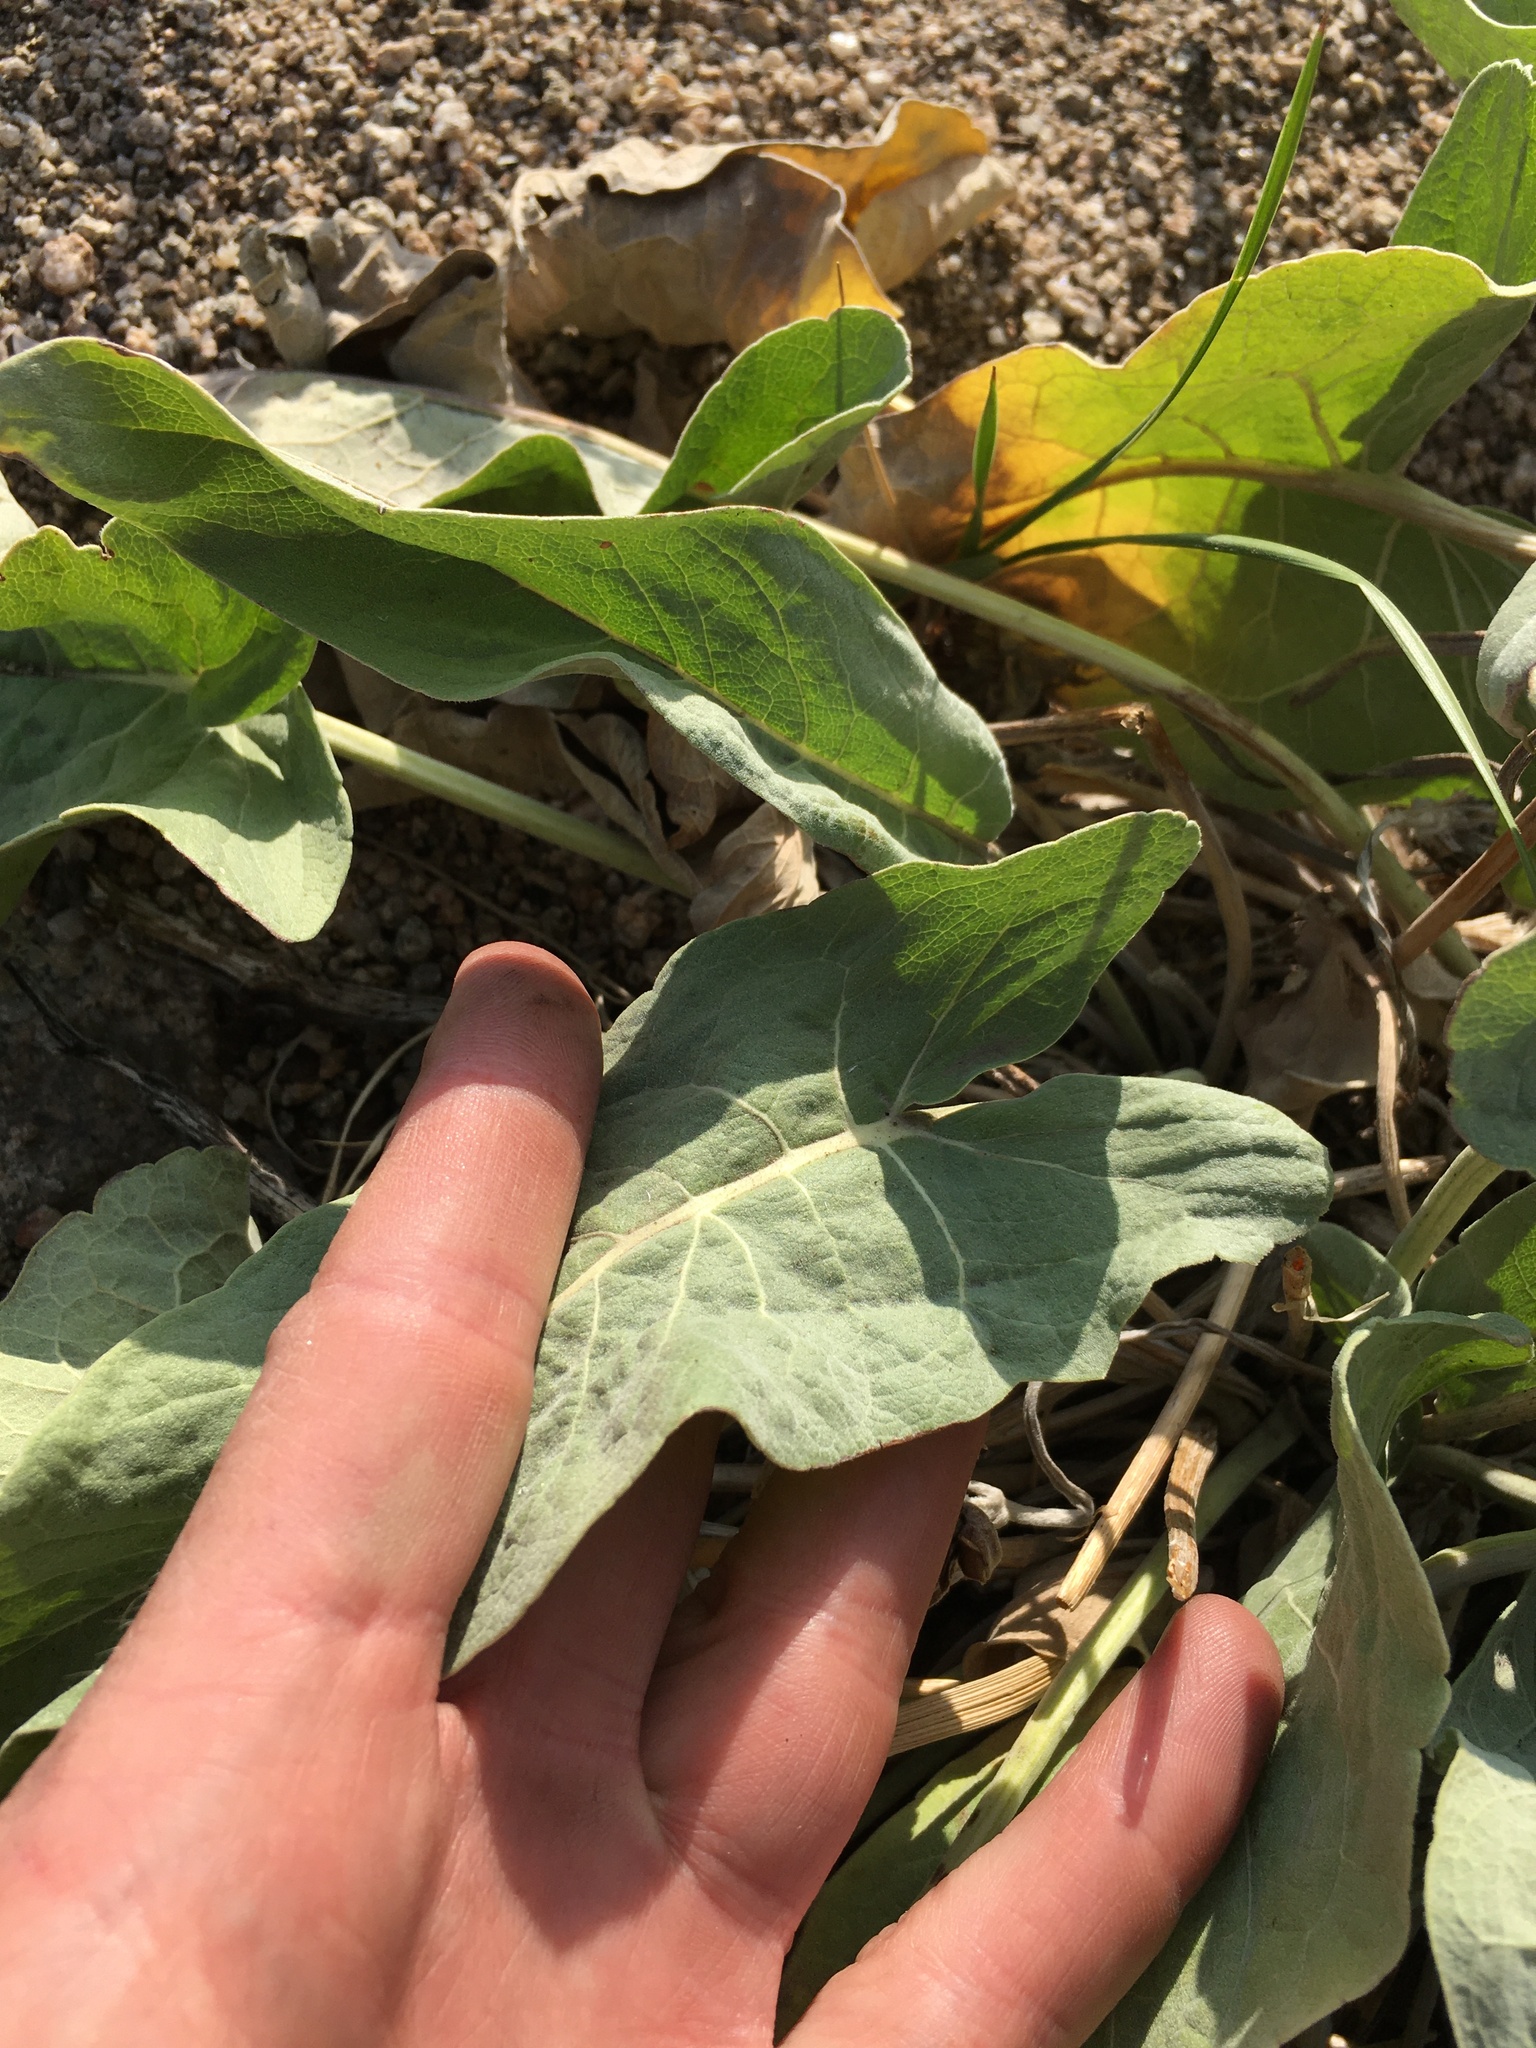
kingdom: Plantae
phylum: Tracheophyta
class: Magnoliopsida
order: Asterales
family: Asteraceae
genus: Wyethia
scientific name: Wyethia sagittata
